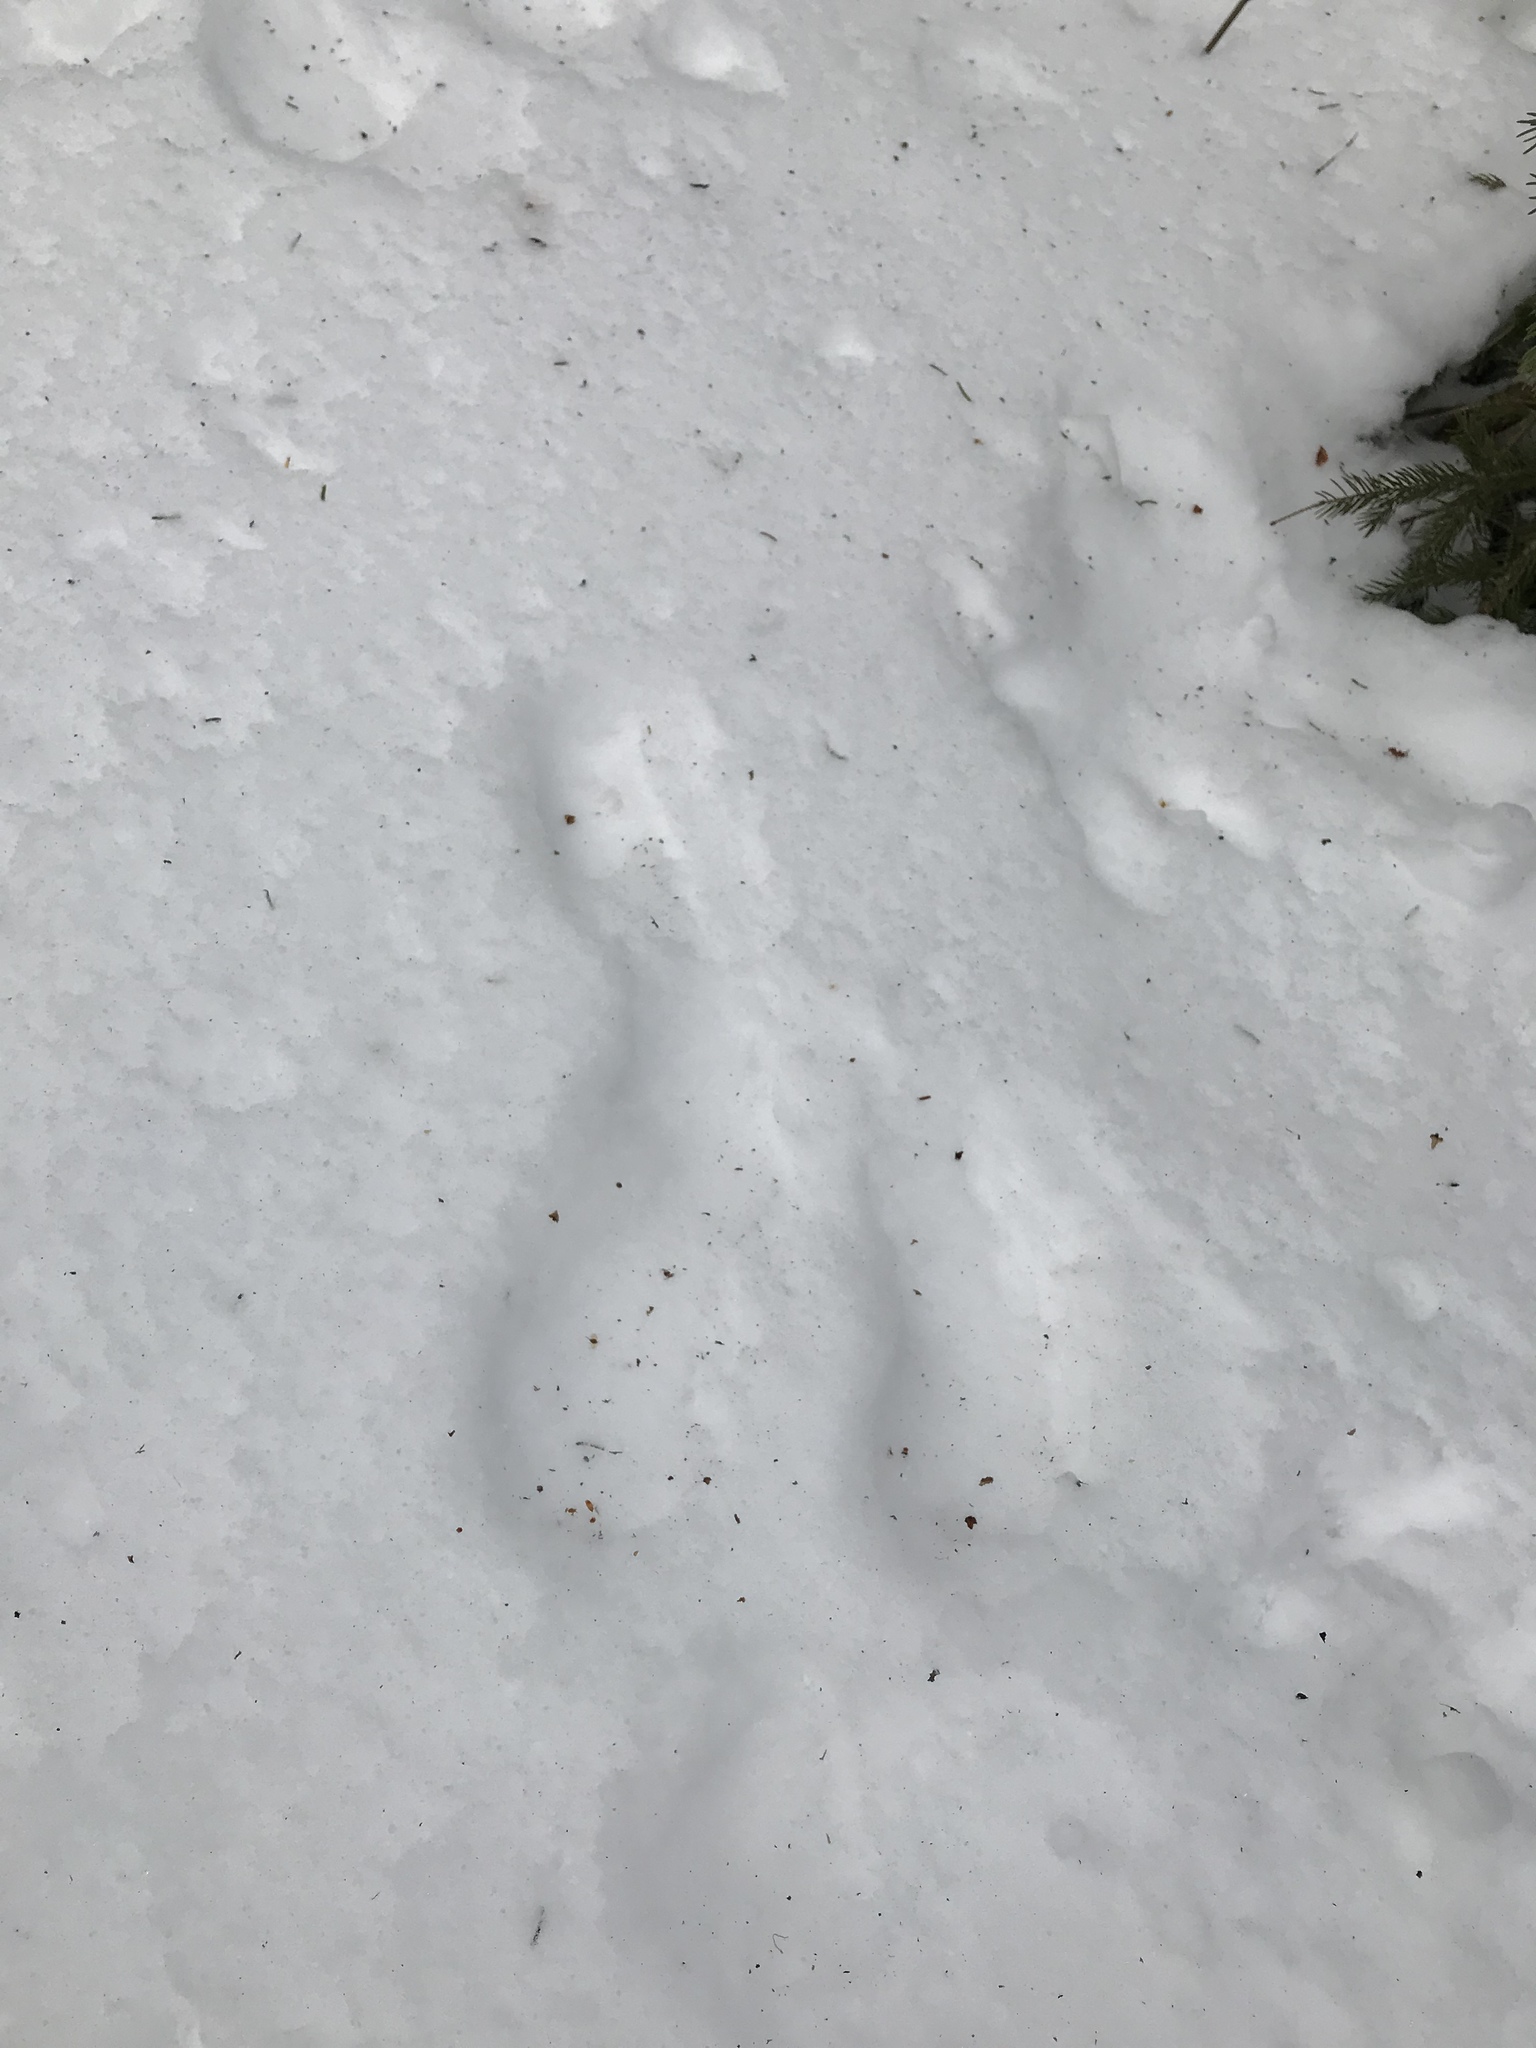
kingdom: Animalia
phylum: Chordata
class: Mammalia
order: Lagomorpha
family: Leporidae
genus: Lepus
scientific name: Lepus americanus
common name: Snowshoe hare
